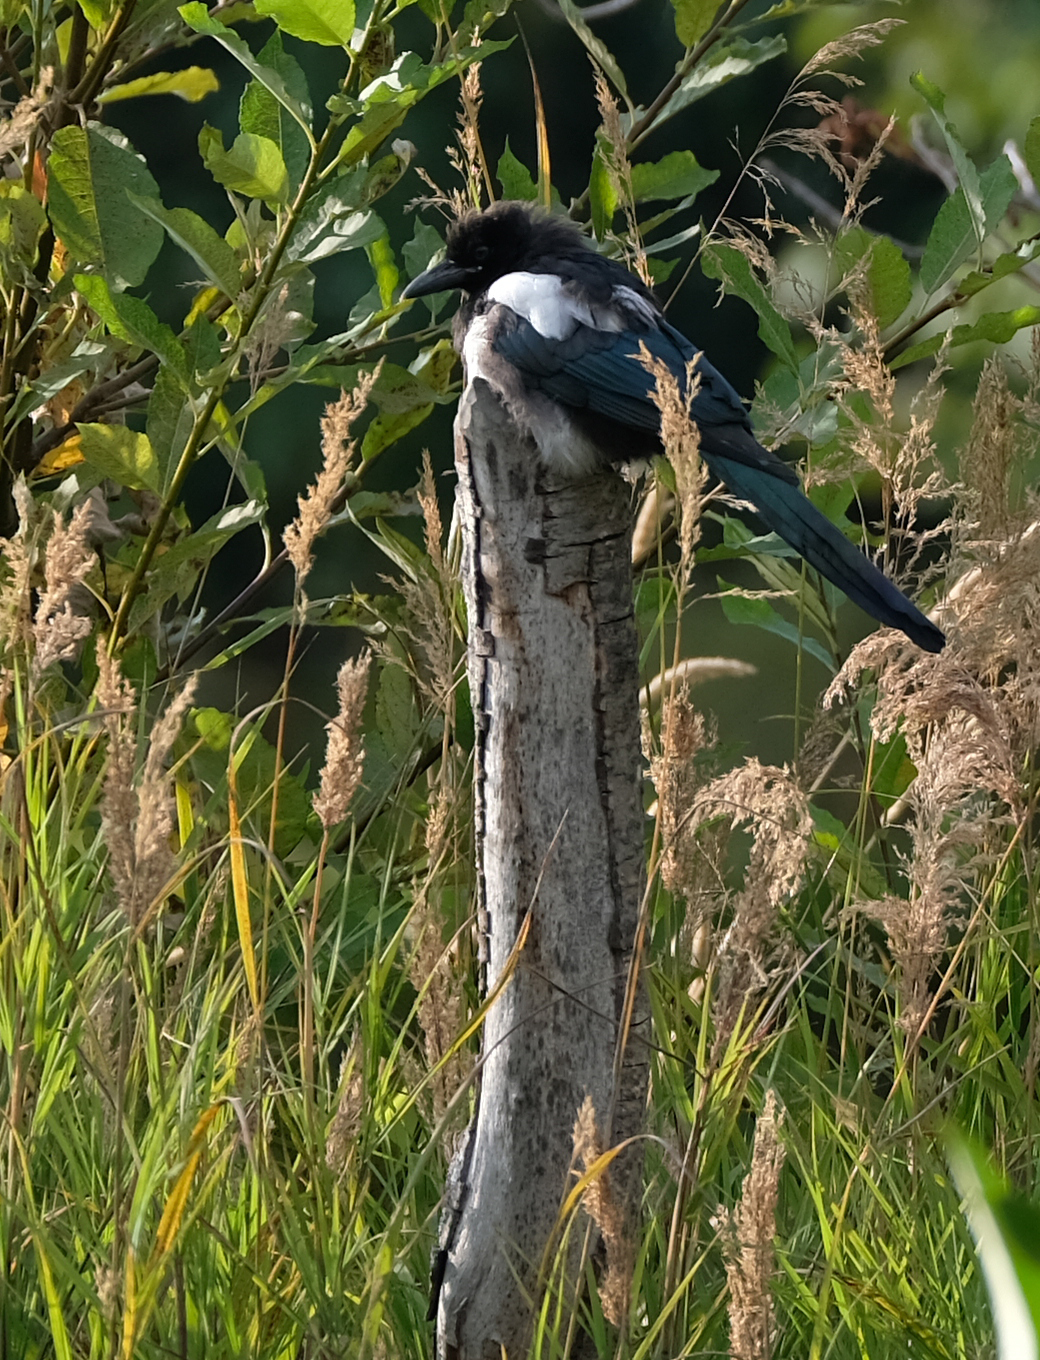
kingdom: Animalia
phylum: Chordata
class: Aves
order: Passeriformes
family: Corvidae
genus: Pica
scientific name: Pica hudsonia
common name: Black-billed magpie
